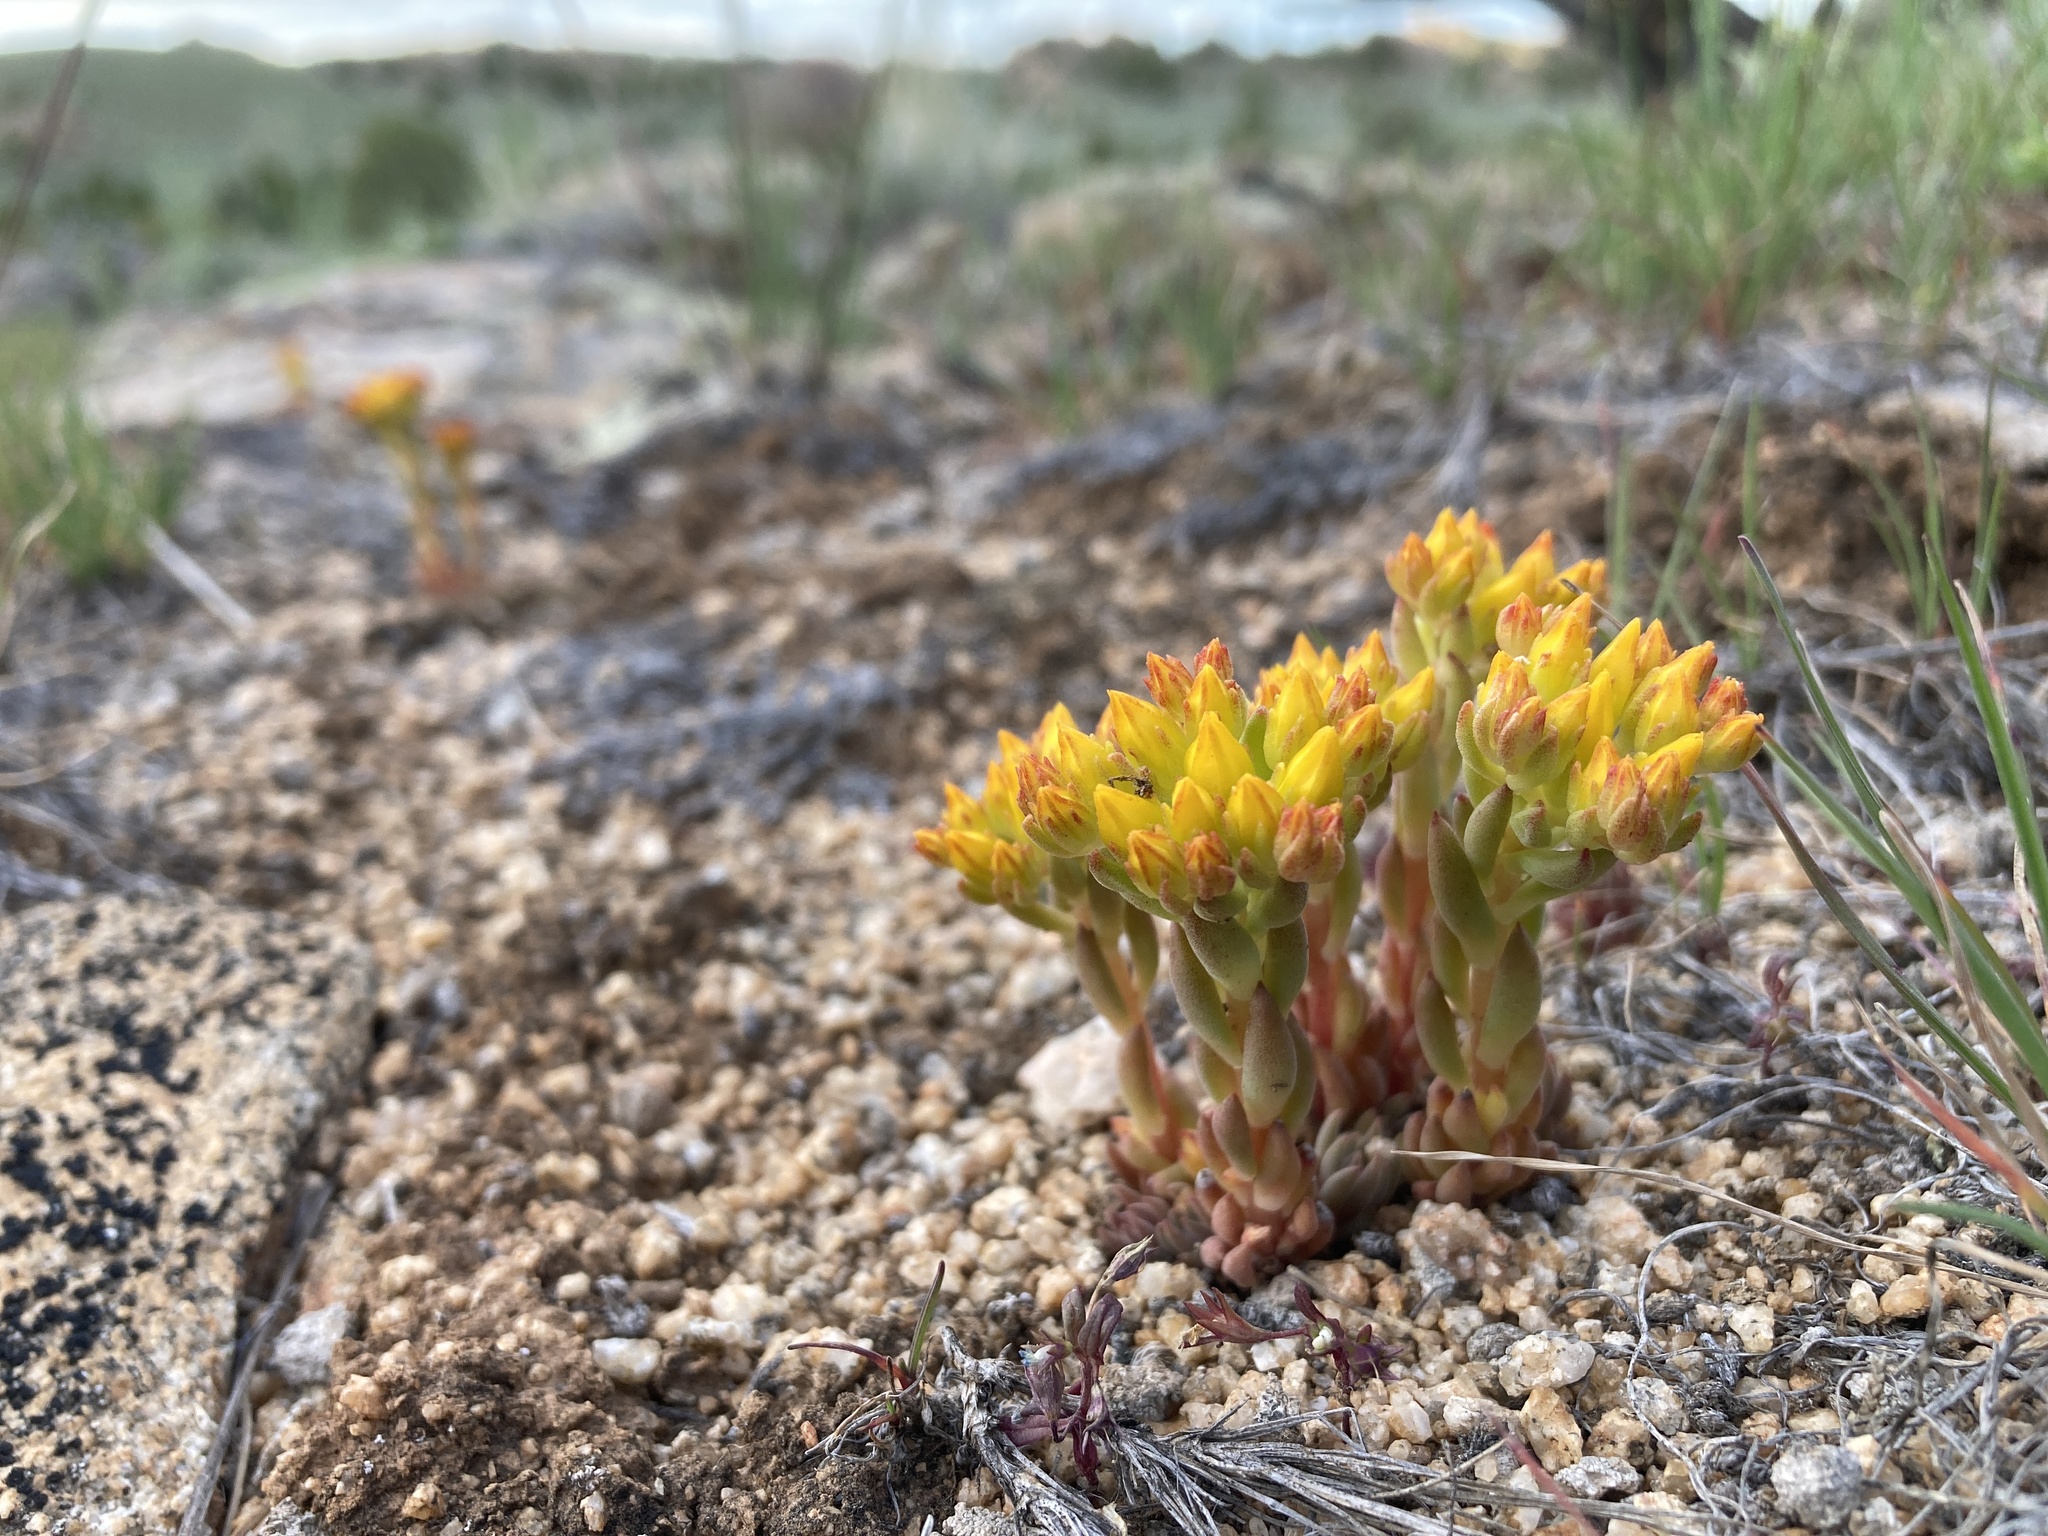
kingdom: Plantae
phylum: Tracheophyta
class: Magnoliopsida
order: Saxifragales
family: Crassulaceae
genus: Sedum
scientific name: Sedum lanceolatum
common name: Common stonecrop
